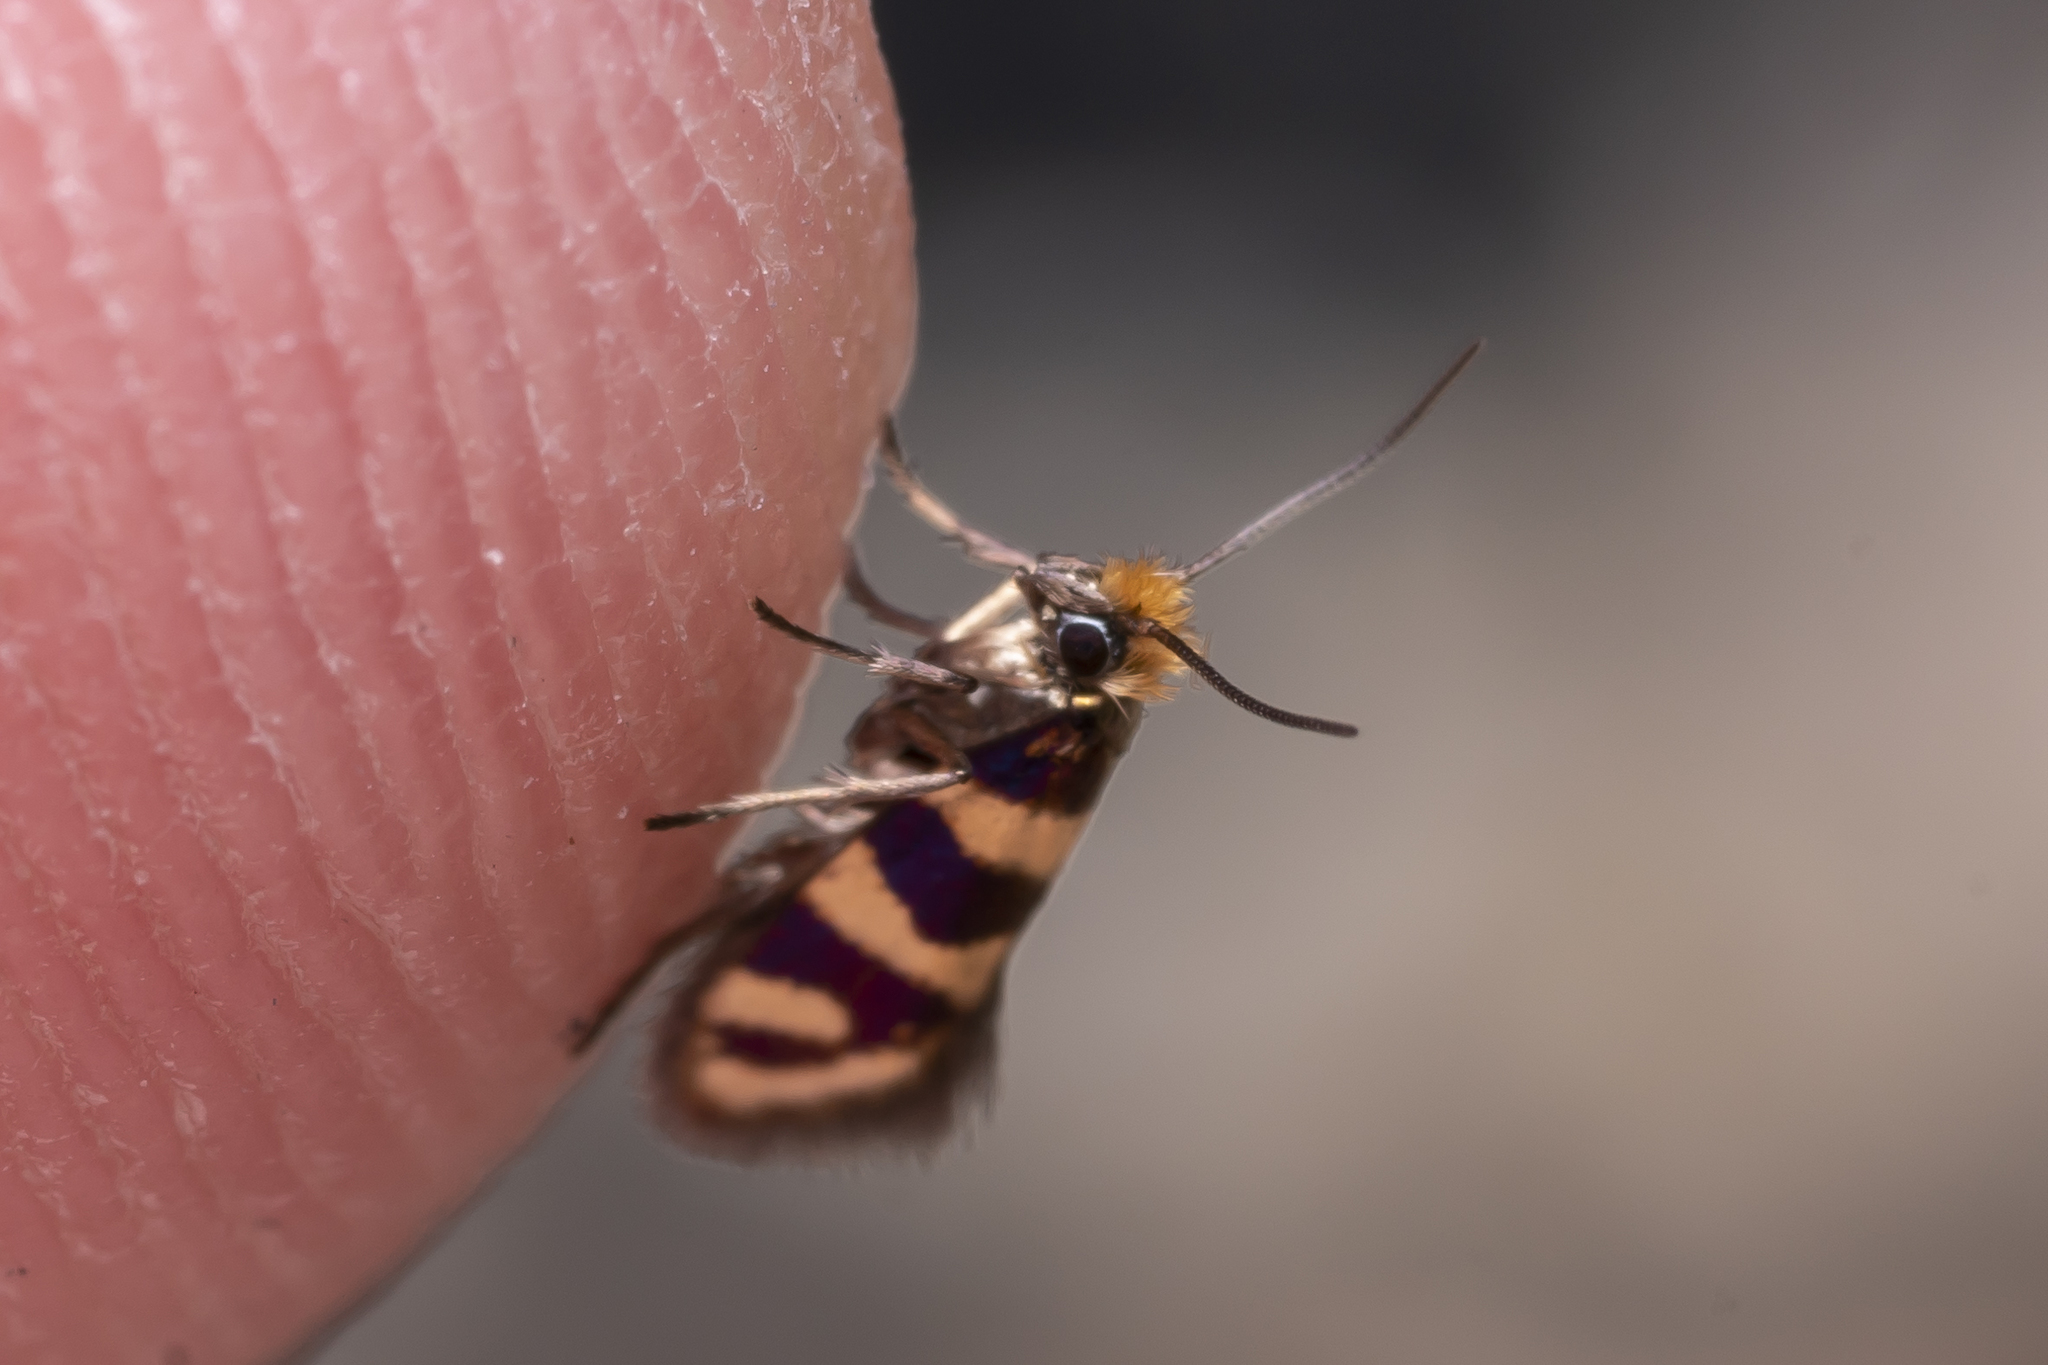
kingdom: Animalia
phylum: Arthropoda
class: Insecta
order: Lepidoptera
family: Micropterigidae
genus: Micropterix
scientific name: Micropterix klimeschi
